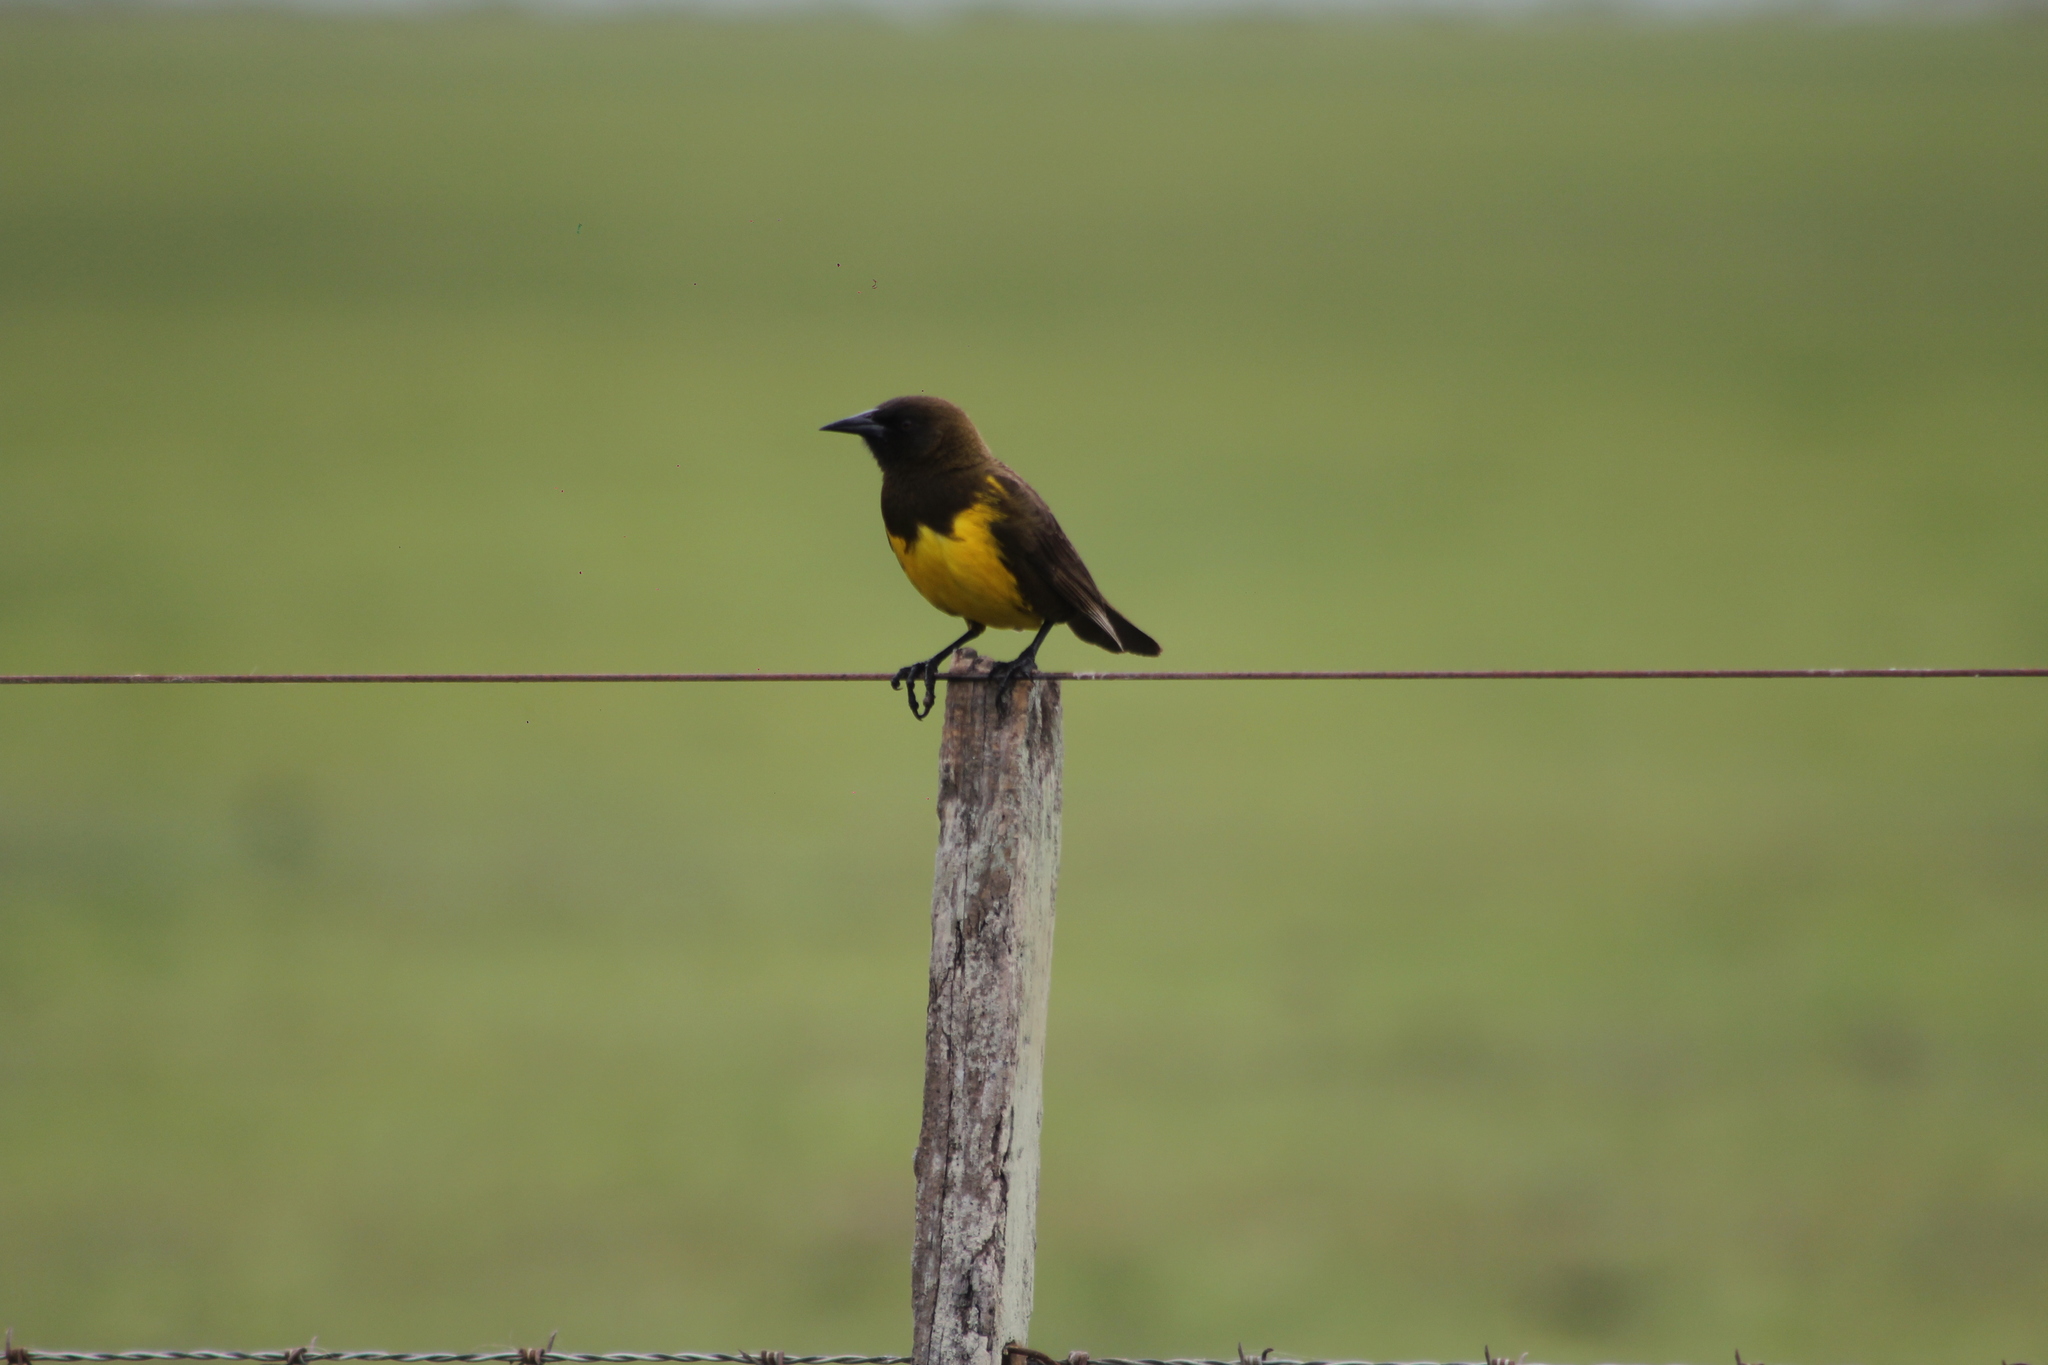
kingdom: Animalia
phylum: Chordata
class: Aves
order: Passeriformes
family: Icteridae
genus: Pseudoleistes
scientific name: Pseudoleistes virescens
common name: Brown-and-yellow marshbird
